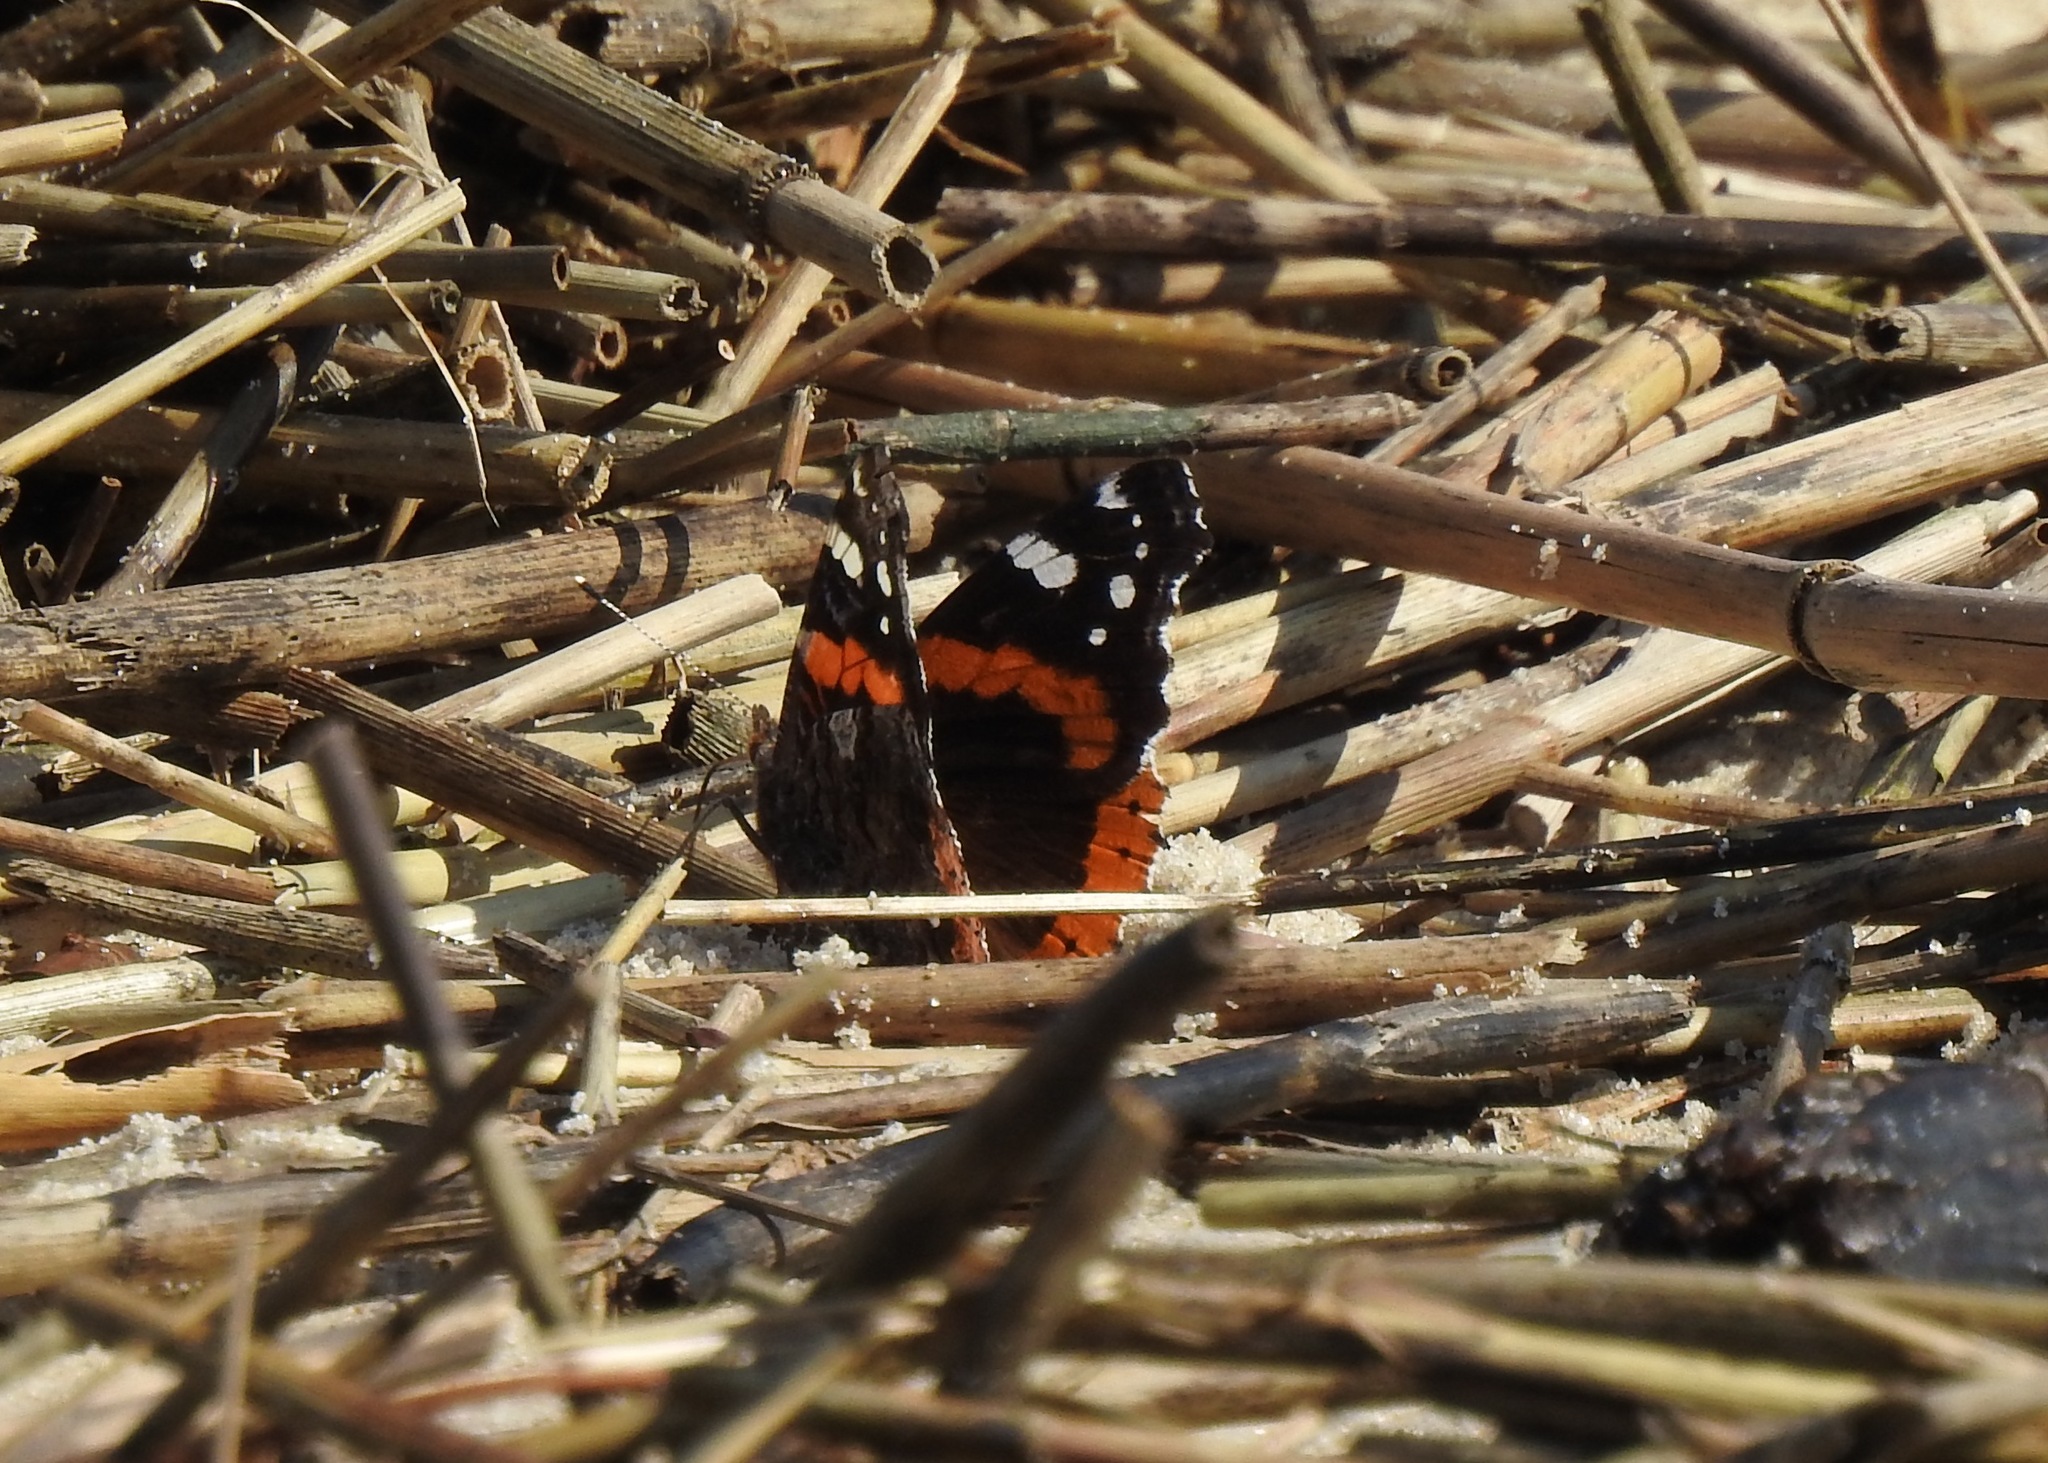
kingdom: Animalia
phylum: Arthropoda
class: Insecta
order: Lepidoptera
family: Nymphalidae
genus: Vanessa
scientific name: Vanessa atalanta
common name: Red admiral
